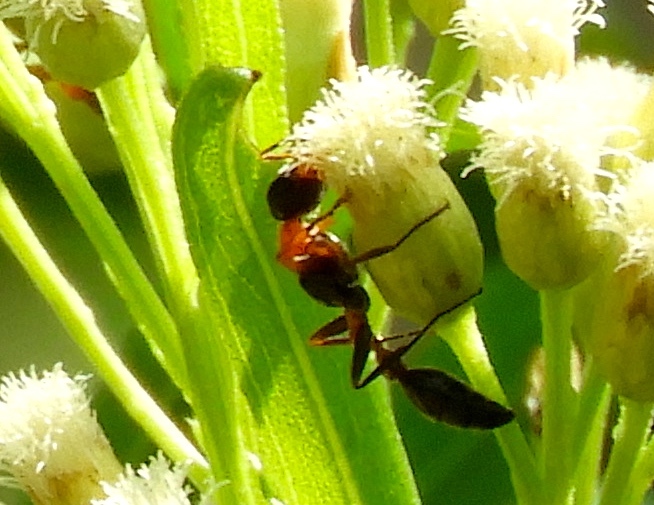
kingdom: Animalia
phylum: Arthropoda
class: Insecta
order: Hymenoptera
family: Formicidae
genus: Pseudomyrmex
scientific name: Pseudomyrmex gracilis
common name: Graceful twig ant
